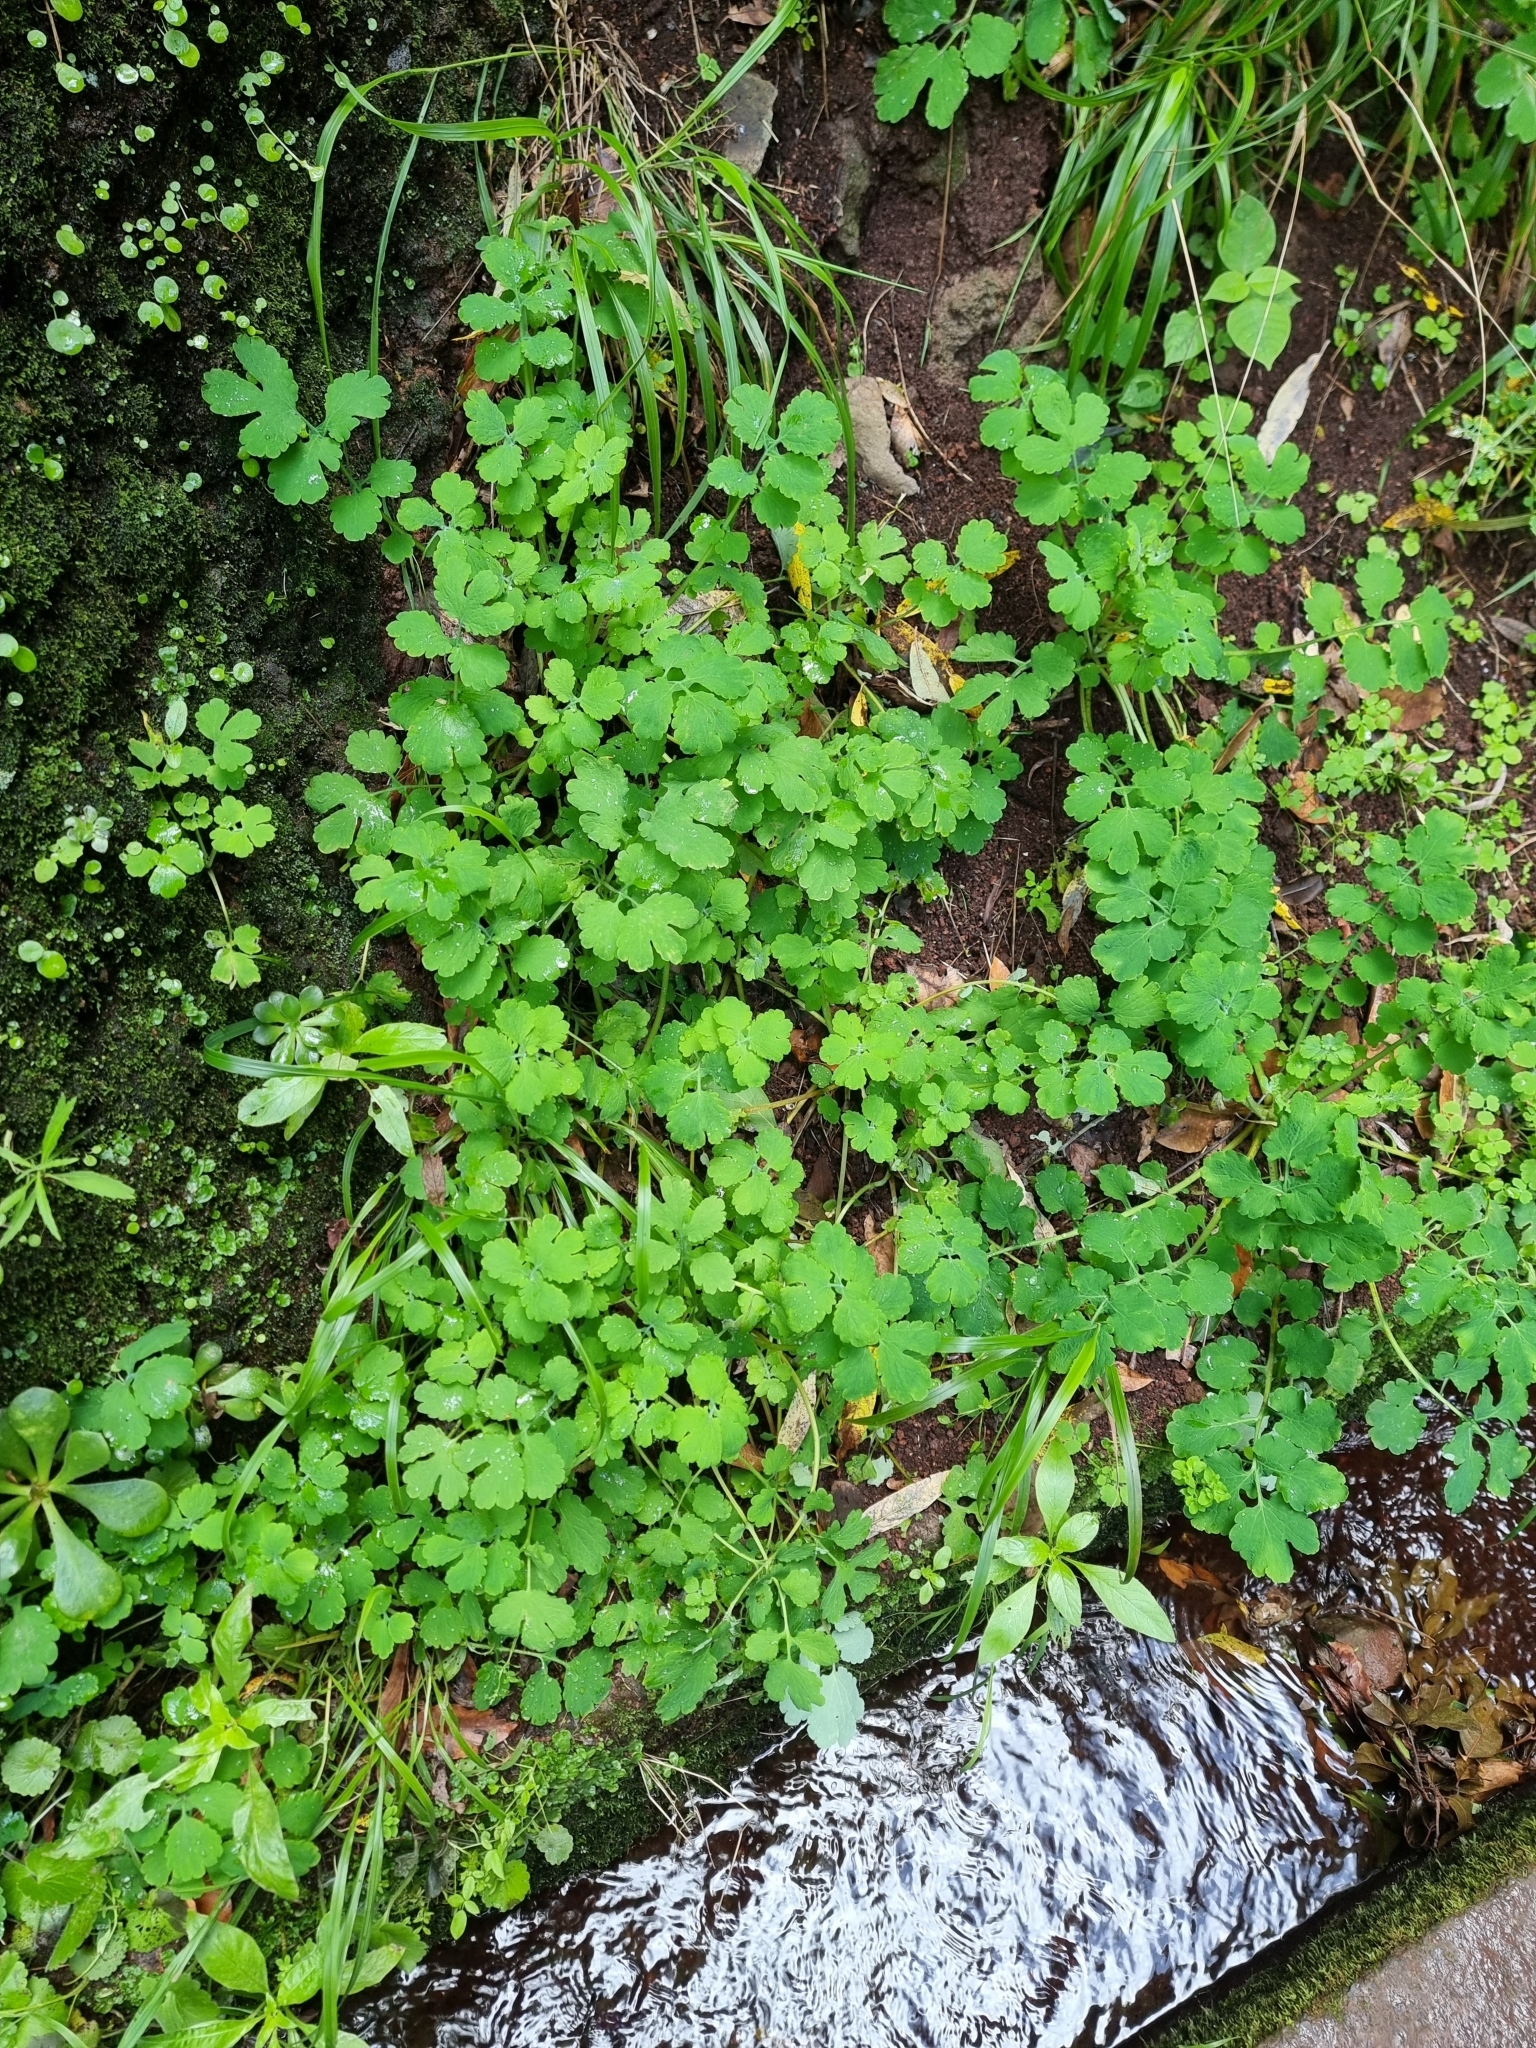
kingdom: Plantae
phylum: Tracheophyta
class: Magnoliopsida
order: Ranunculales
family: Papaveraceae
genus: Chelidonium
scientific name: Chelidonium majus
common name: Greater celandine
